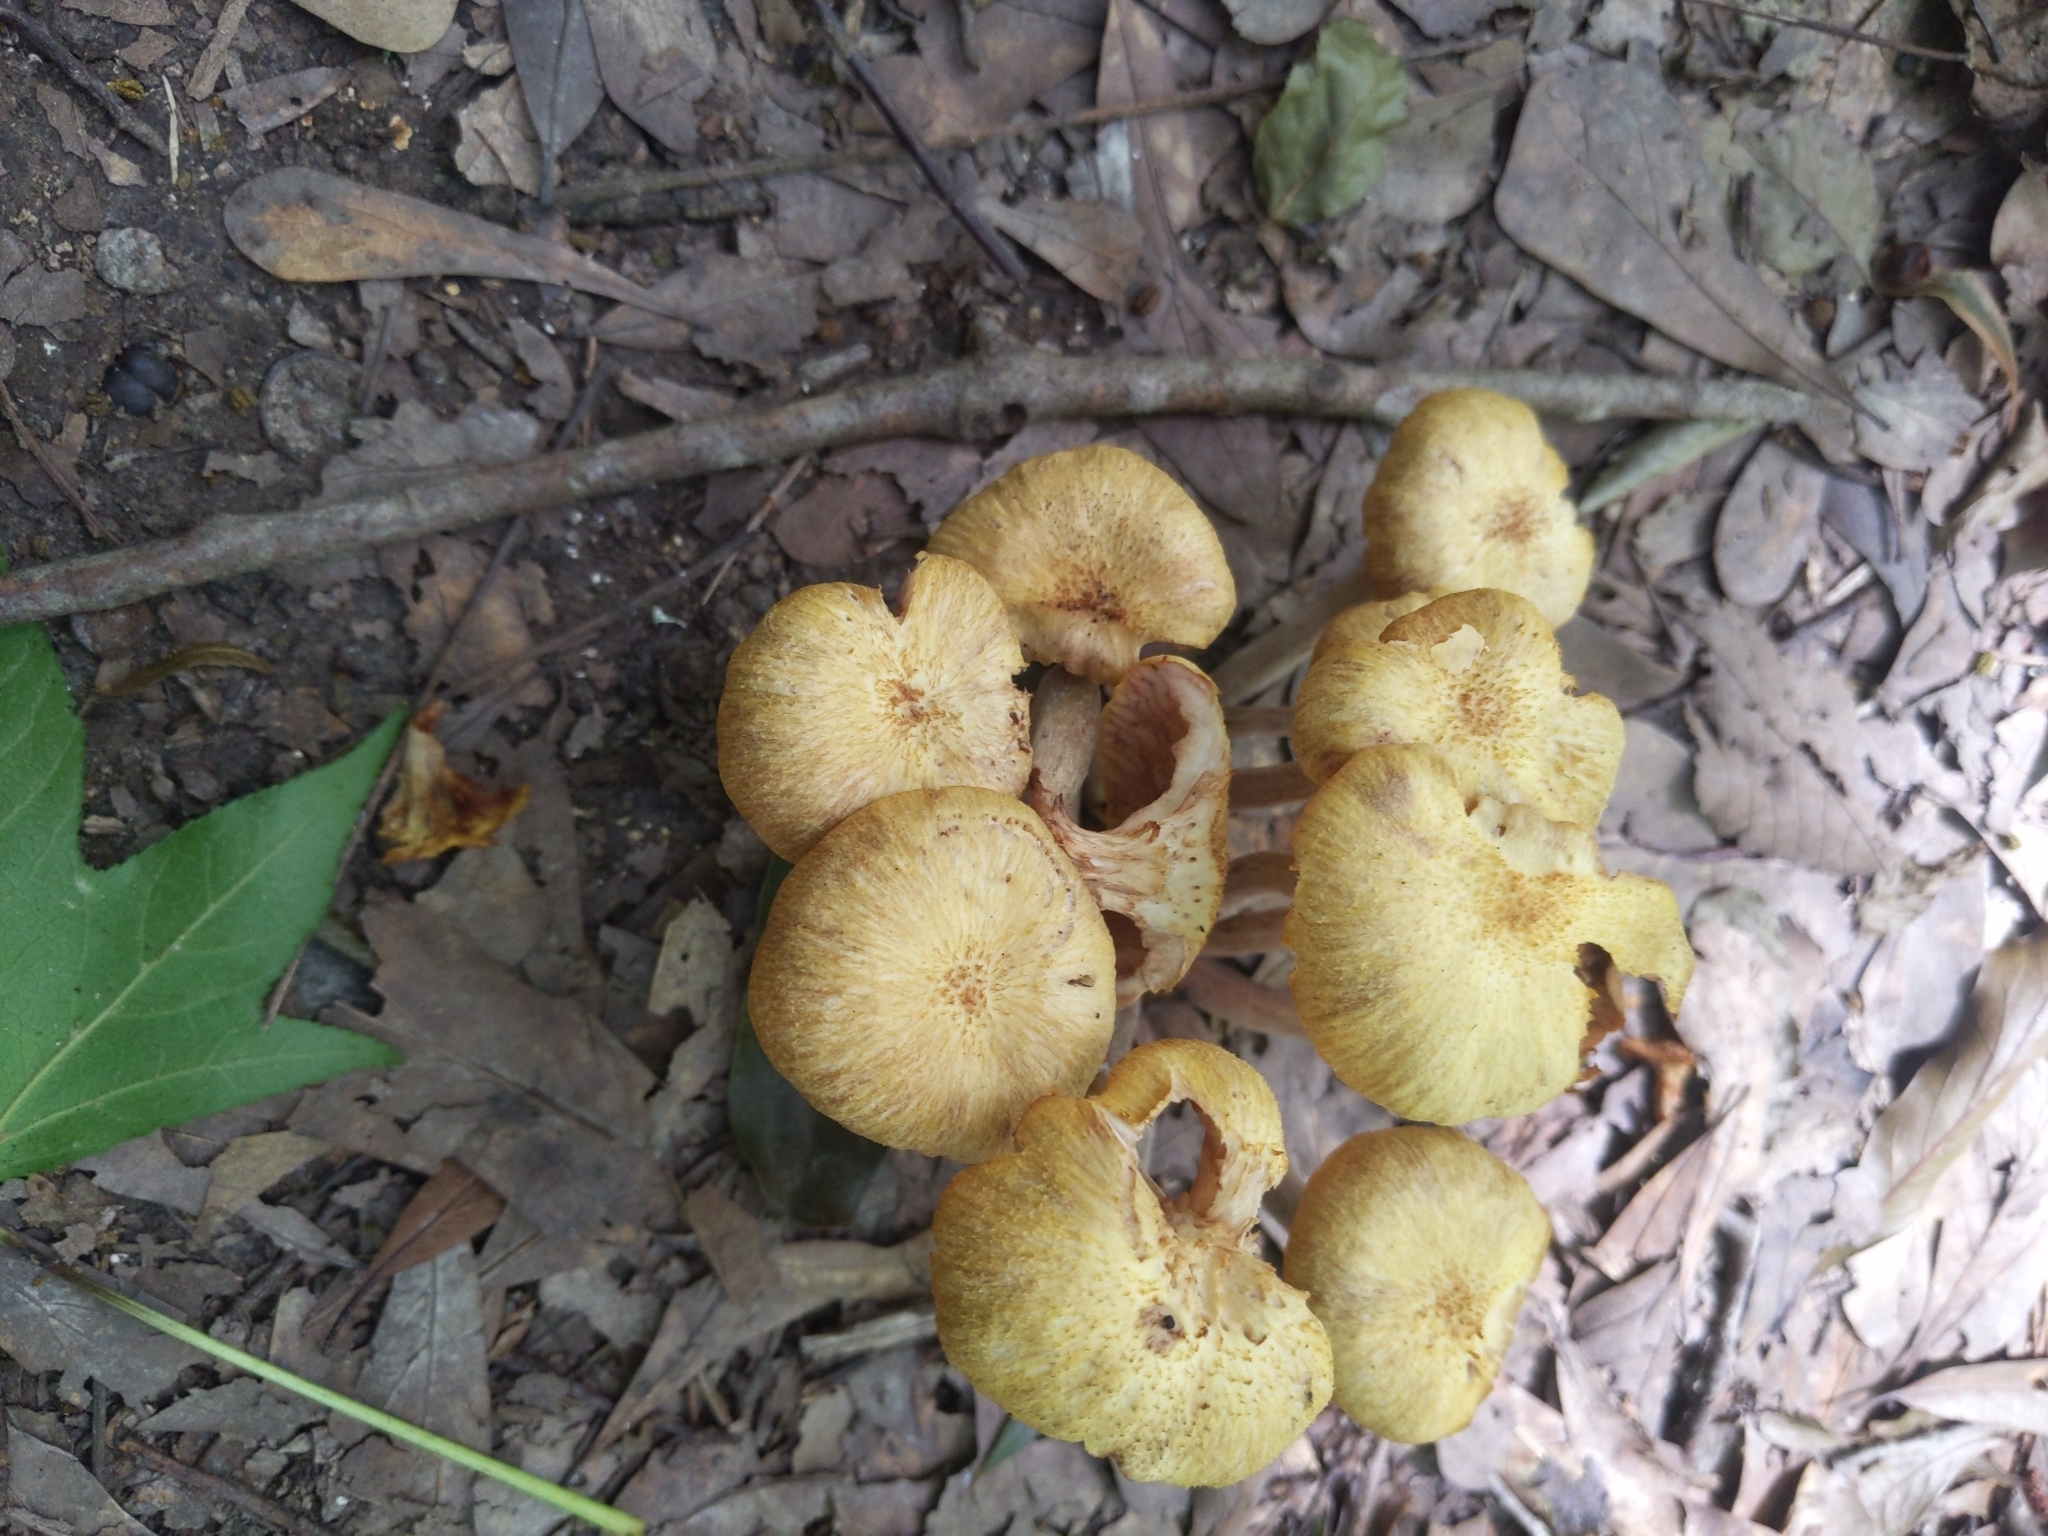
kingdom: Fungi
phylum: Basidiomycota
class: Agaricomycetes
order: Agaricales
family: Physalacriaceae
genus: Desarmillaria
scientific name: Desarmillaria caespitosa
